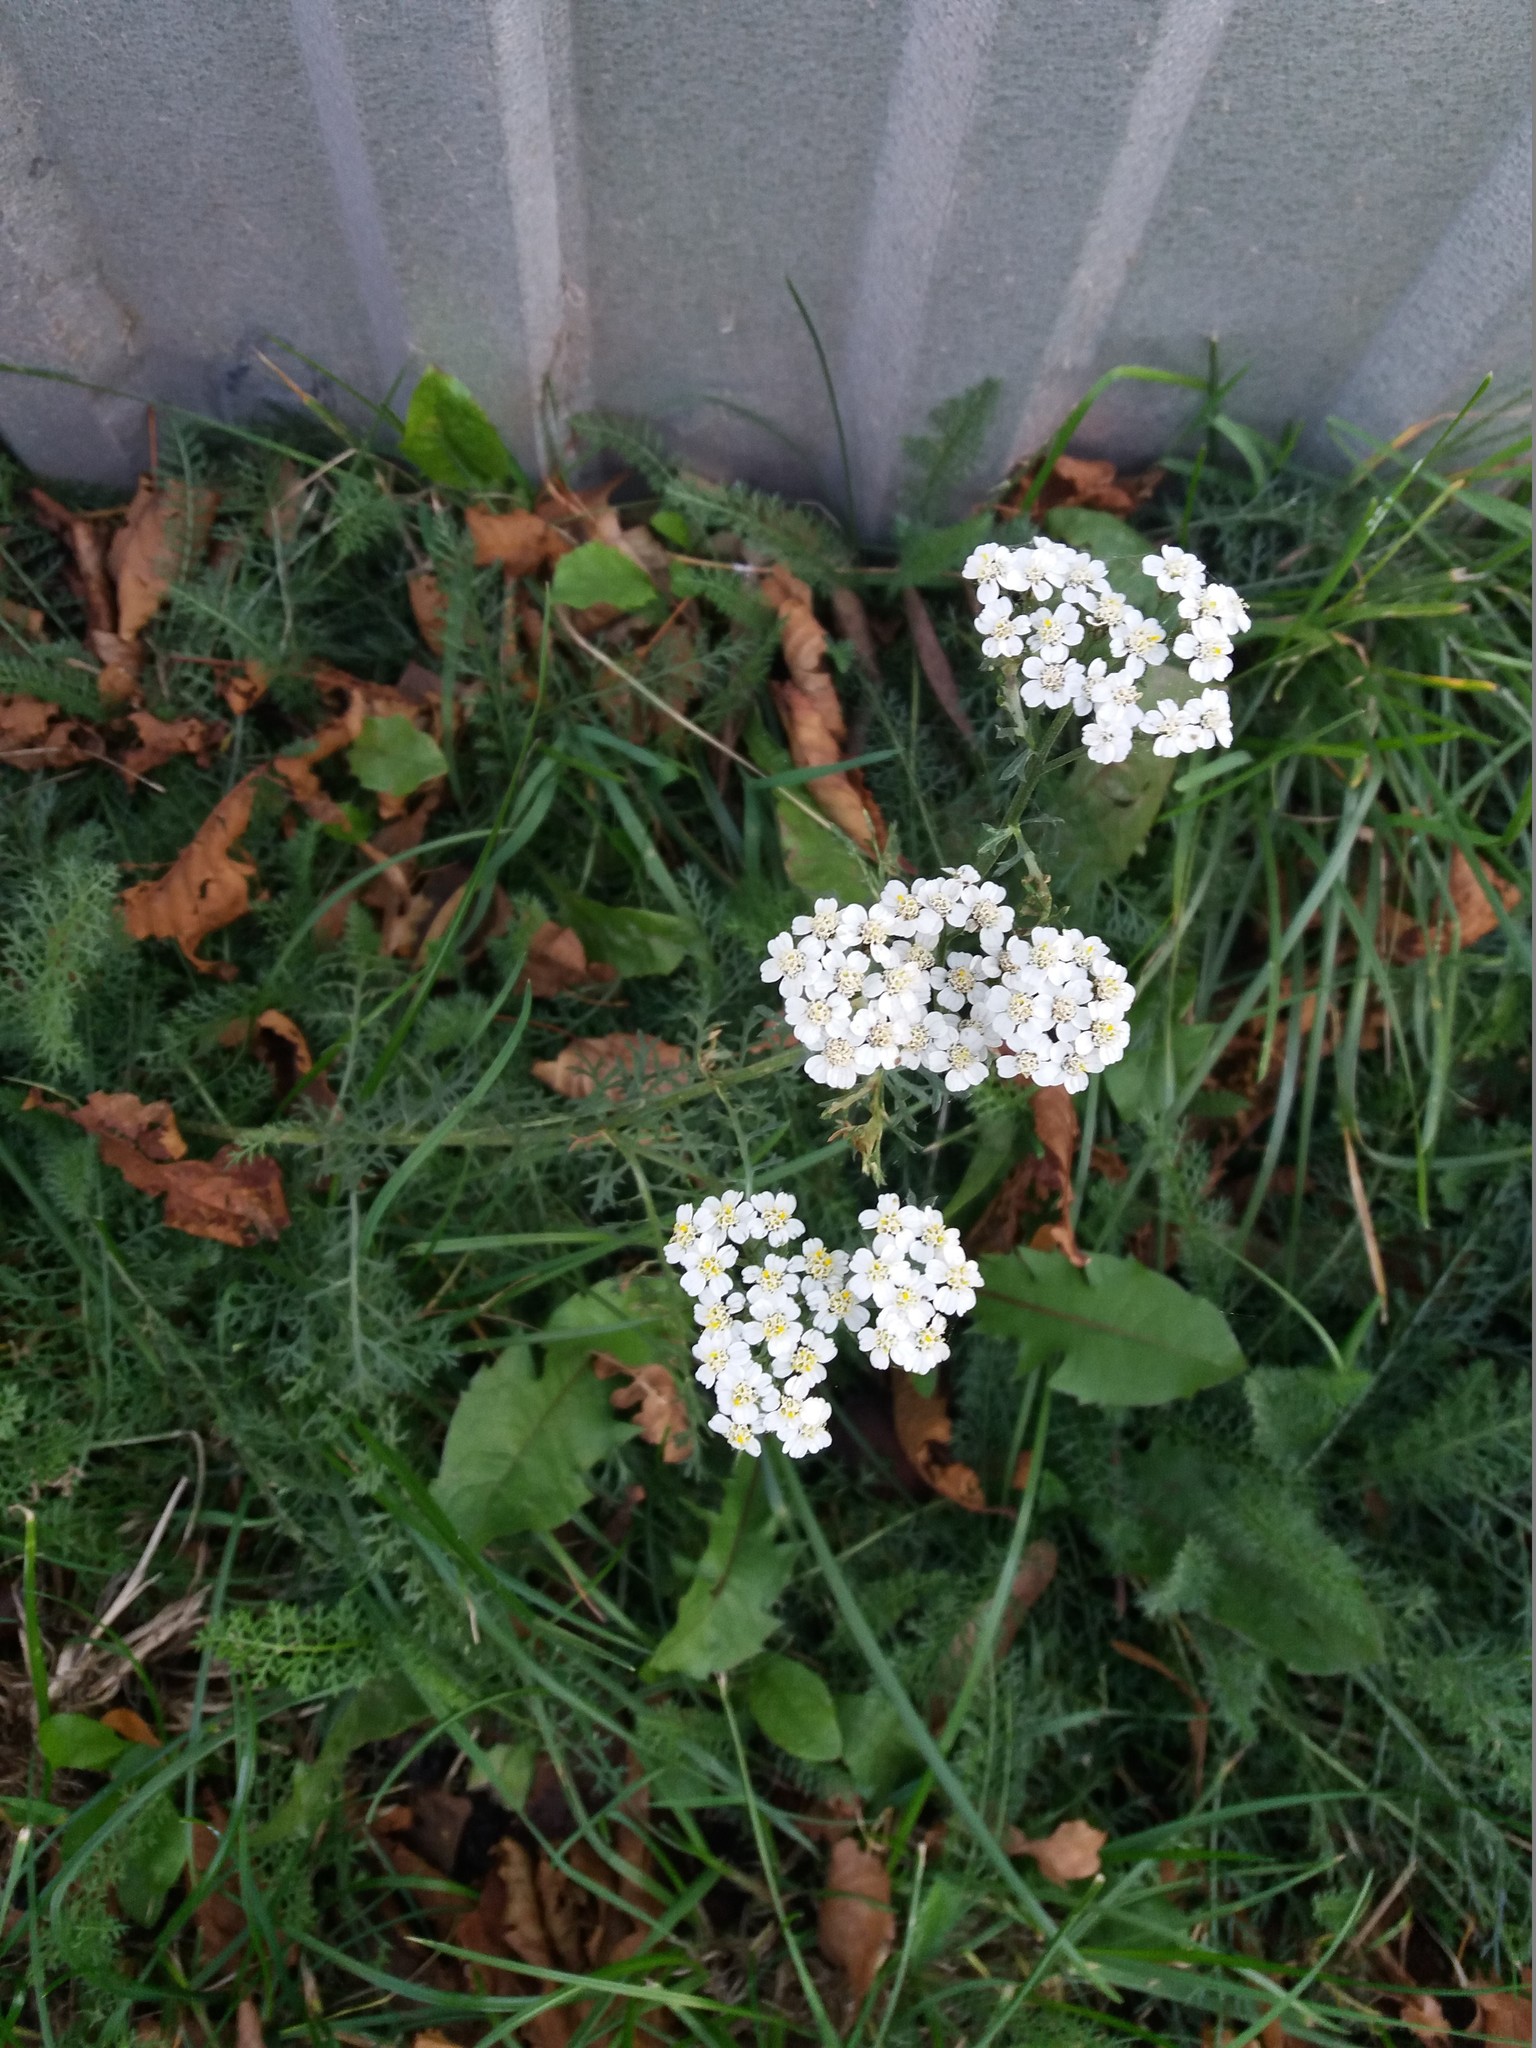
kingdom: Plantae
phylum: Tracheophyta
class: Magnoliopsida
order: Asterales
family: Asteraceae
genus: Achillea
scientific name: Achillea millefolium
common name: Yarrow
